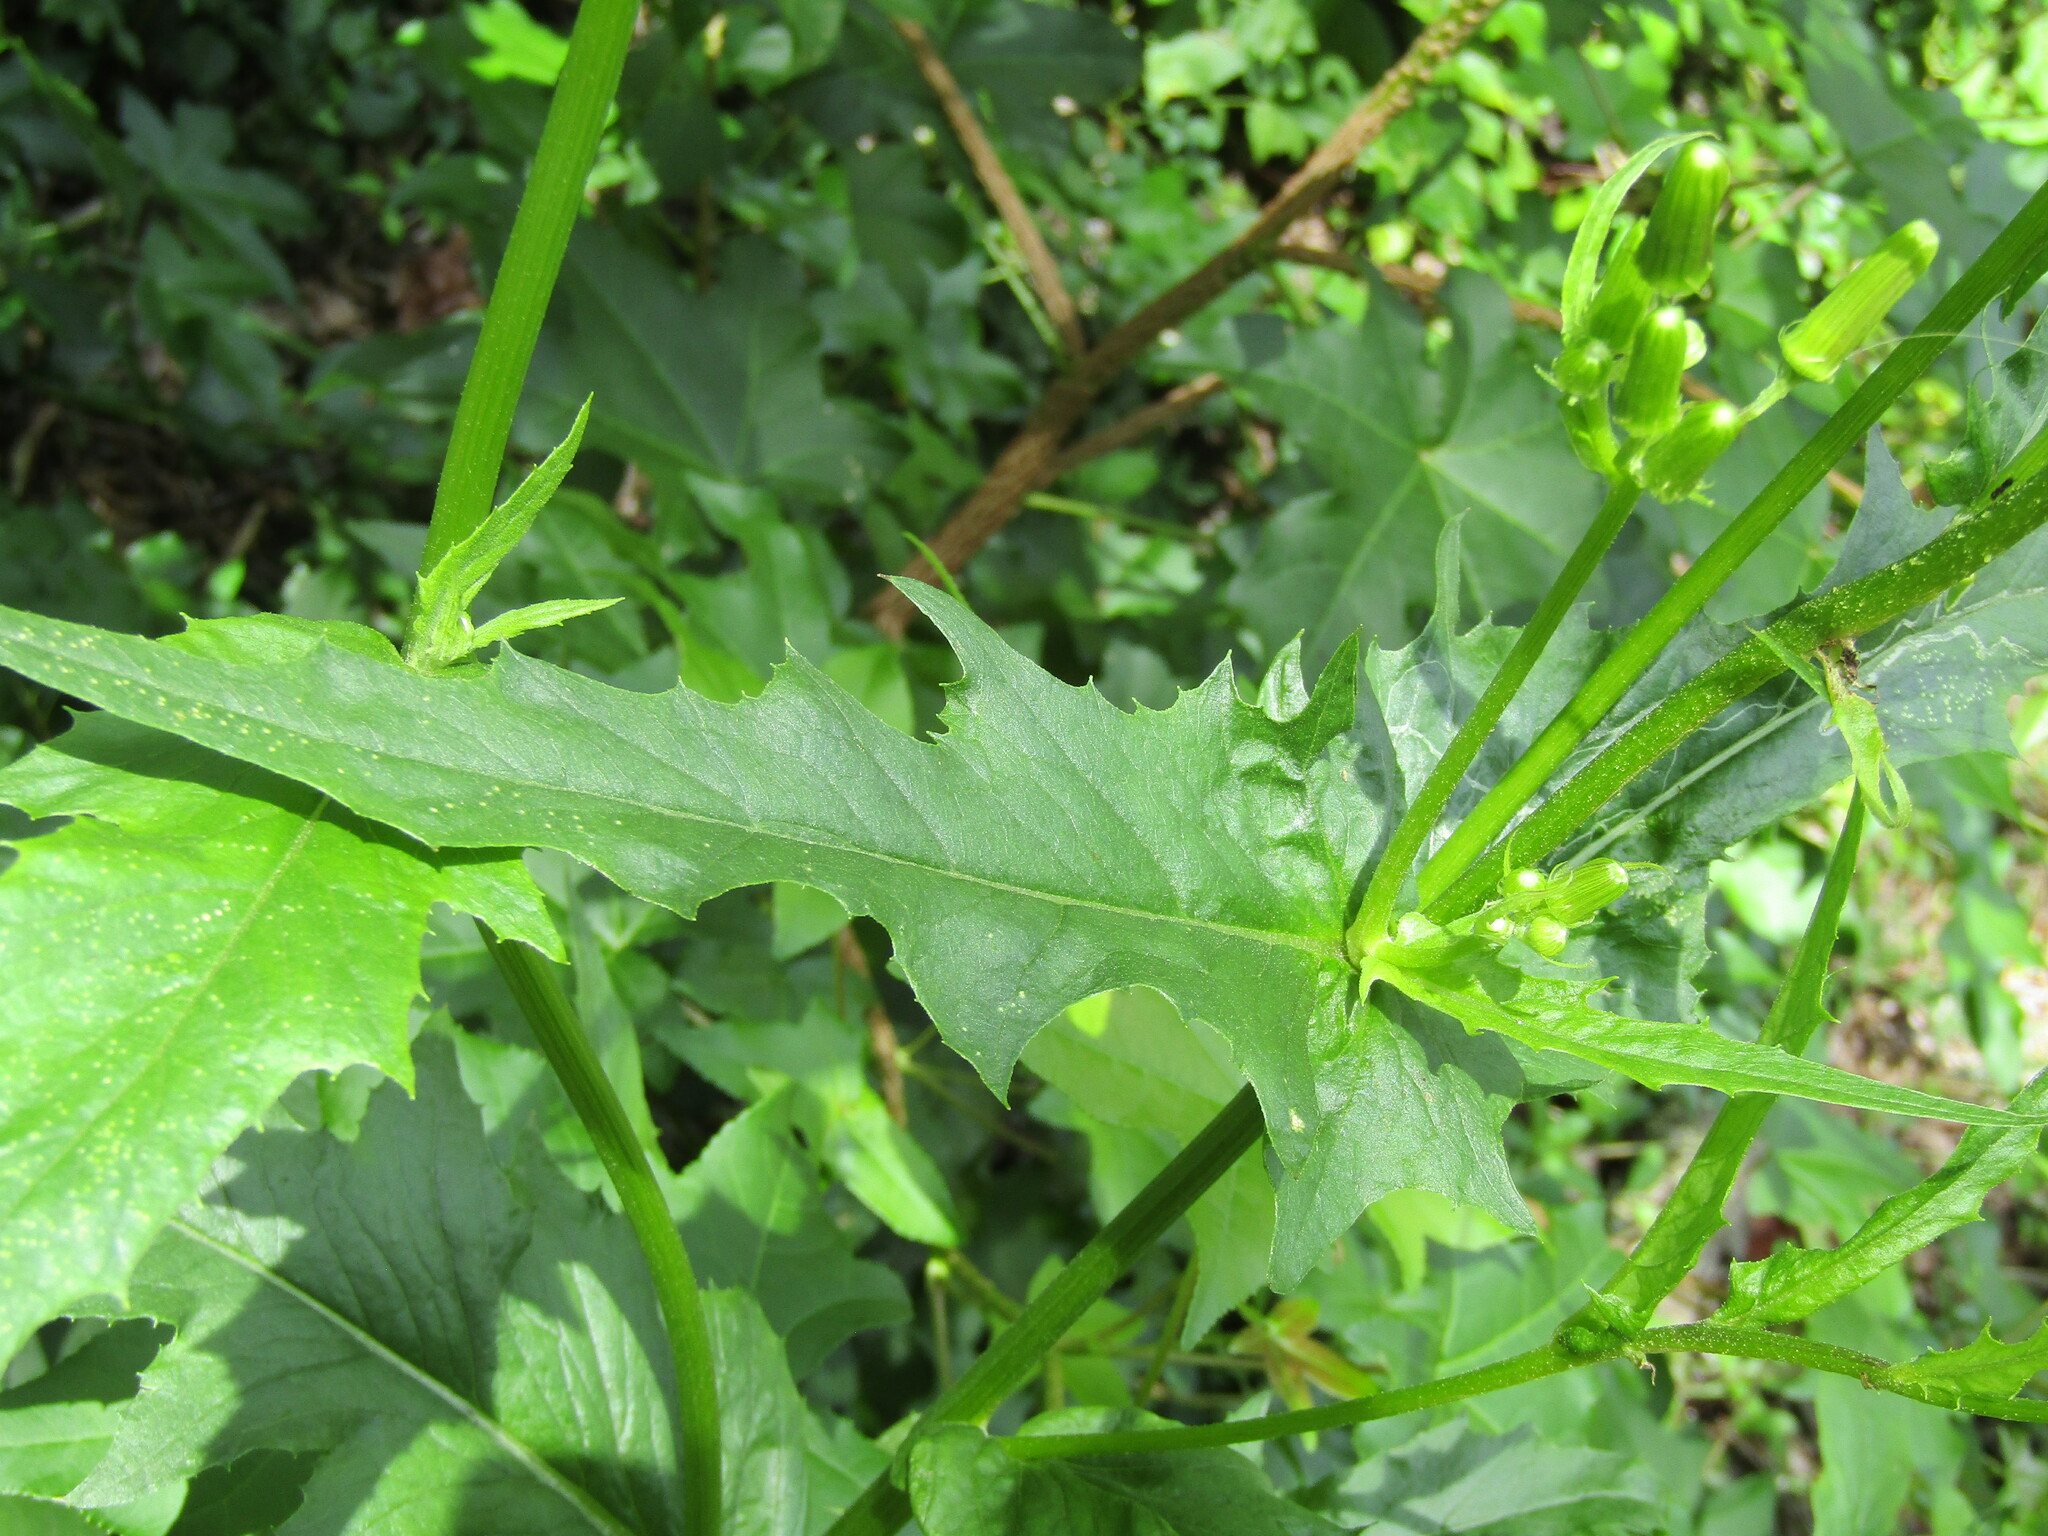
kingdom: Plantae
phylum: Tracheophyta
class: Magnoliopsida
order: Asterales
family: Asteraceae
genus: Erechtites
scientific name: Erechtites hieraciifolius
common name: American burnweed
